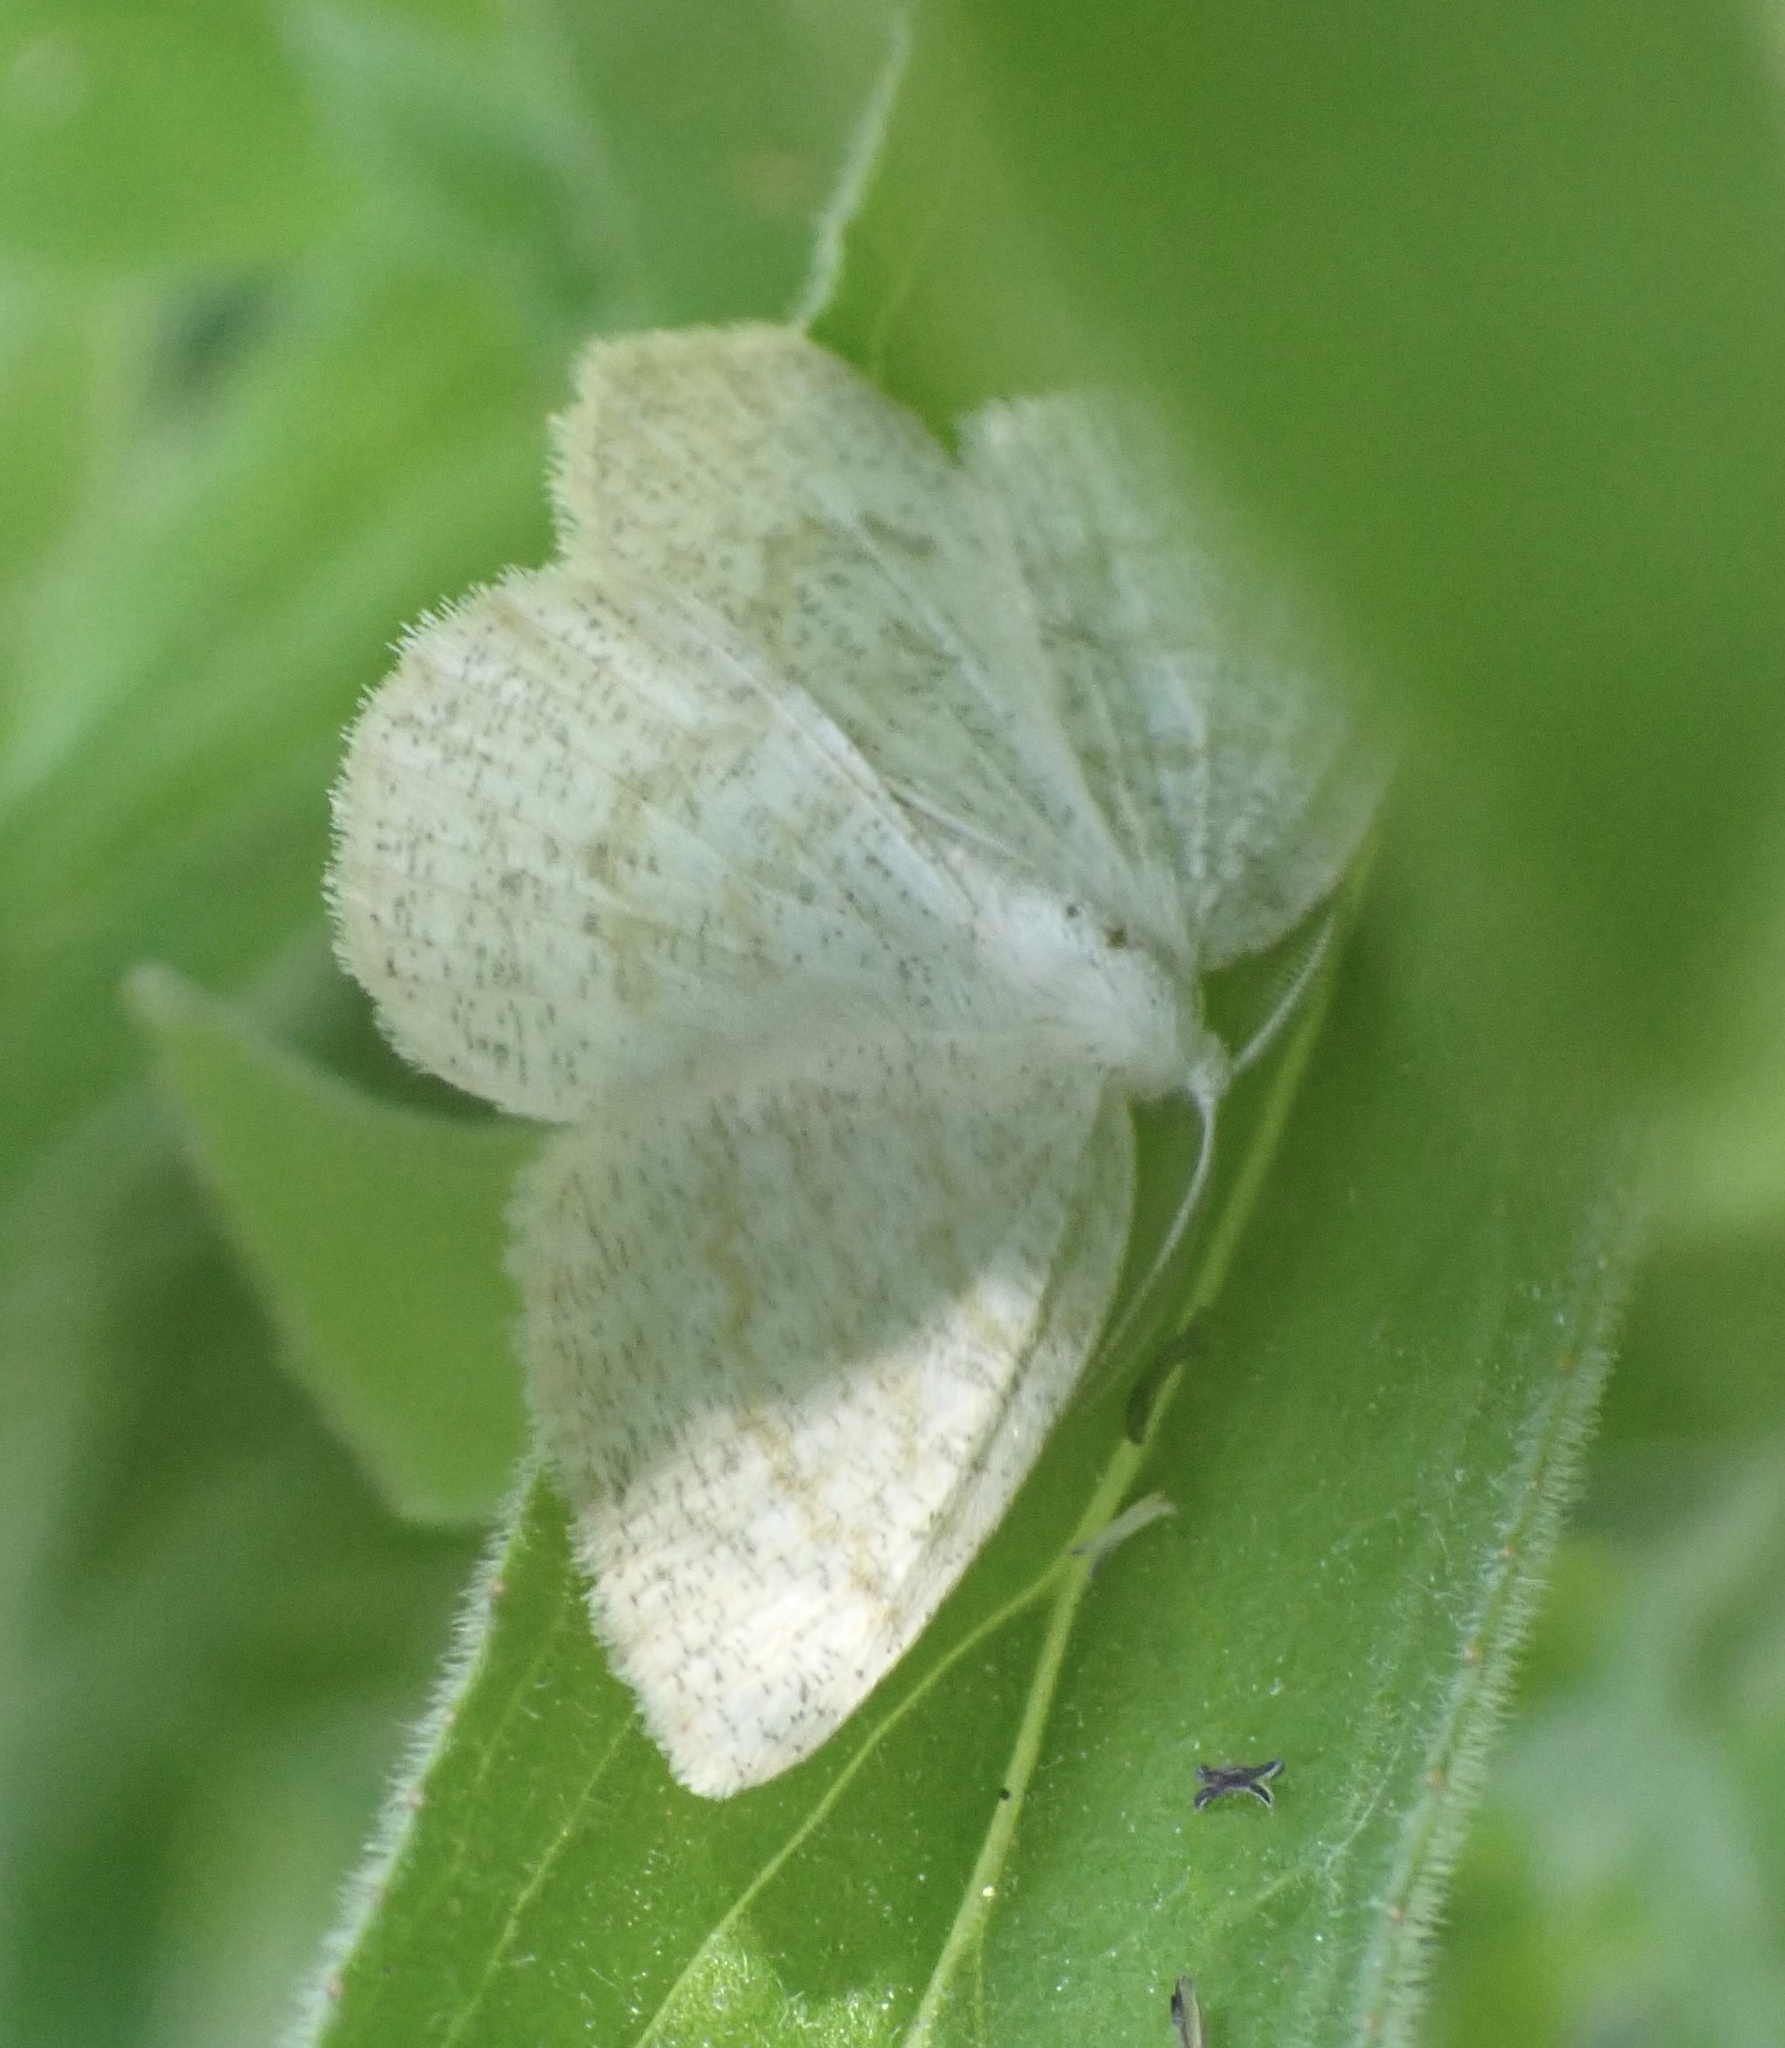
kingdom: Animalia
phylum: Arthropoda
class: Insecta
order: Lepidoptera
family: Geometridae
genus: Cabera
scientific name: Cabera exanthemata
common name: Common wave
